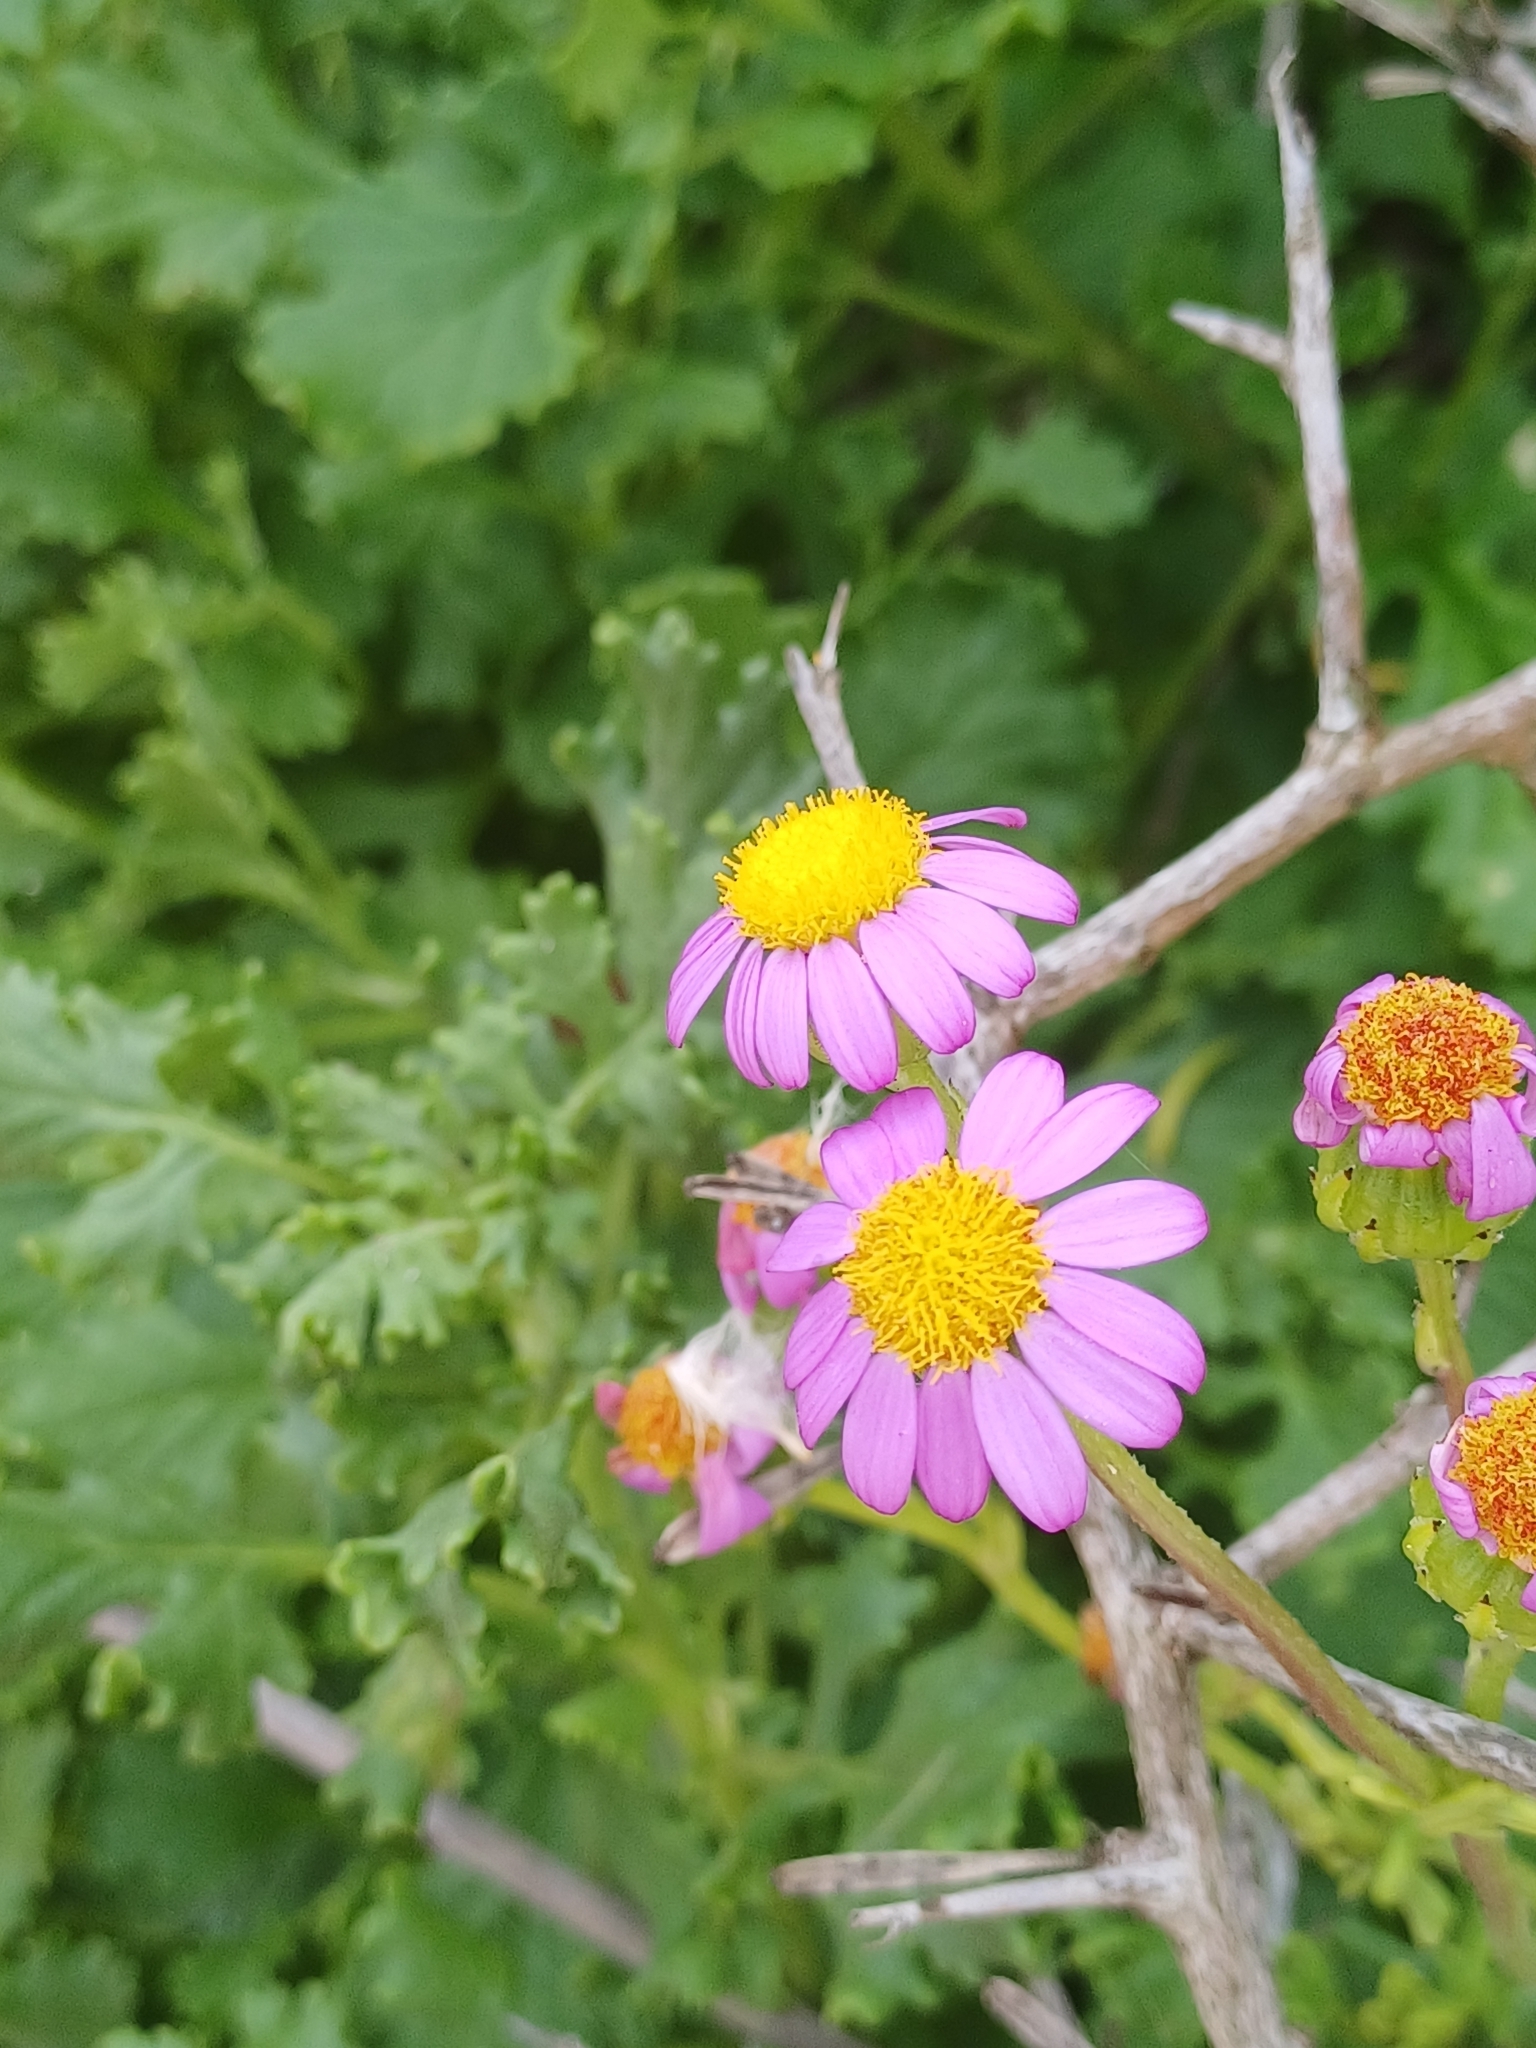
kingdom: Plantae
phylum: Tracheophyta
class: Magnoliopsida
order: Asterales
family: Asteraceae
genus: Senecio
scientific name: Senecio elegans
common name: Purple groundsel
